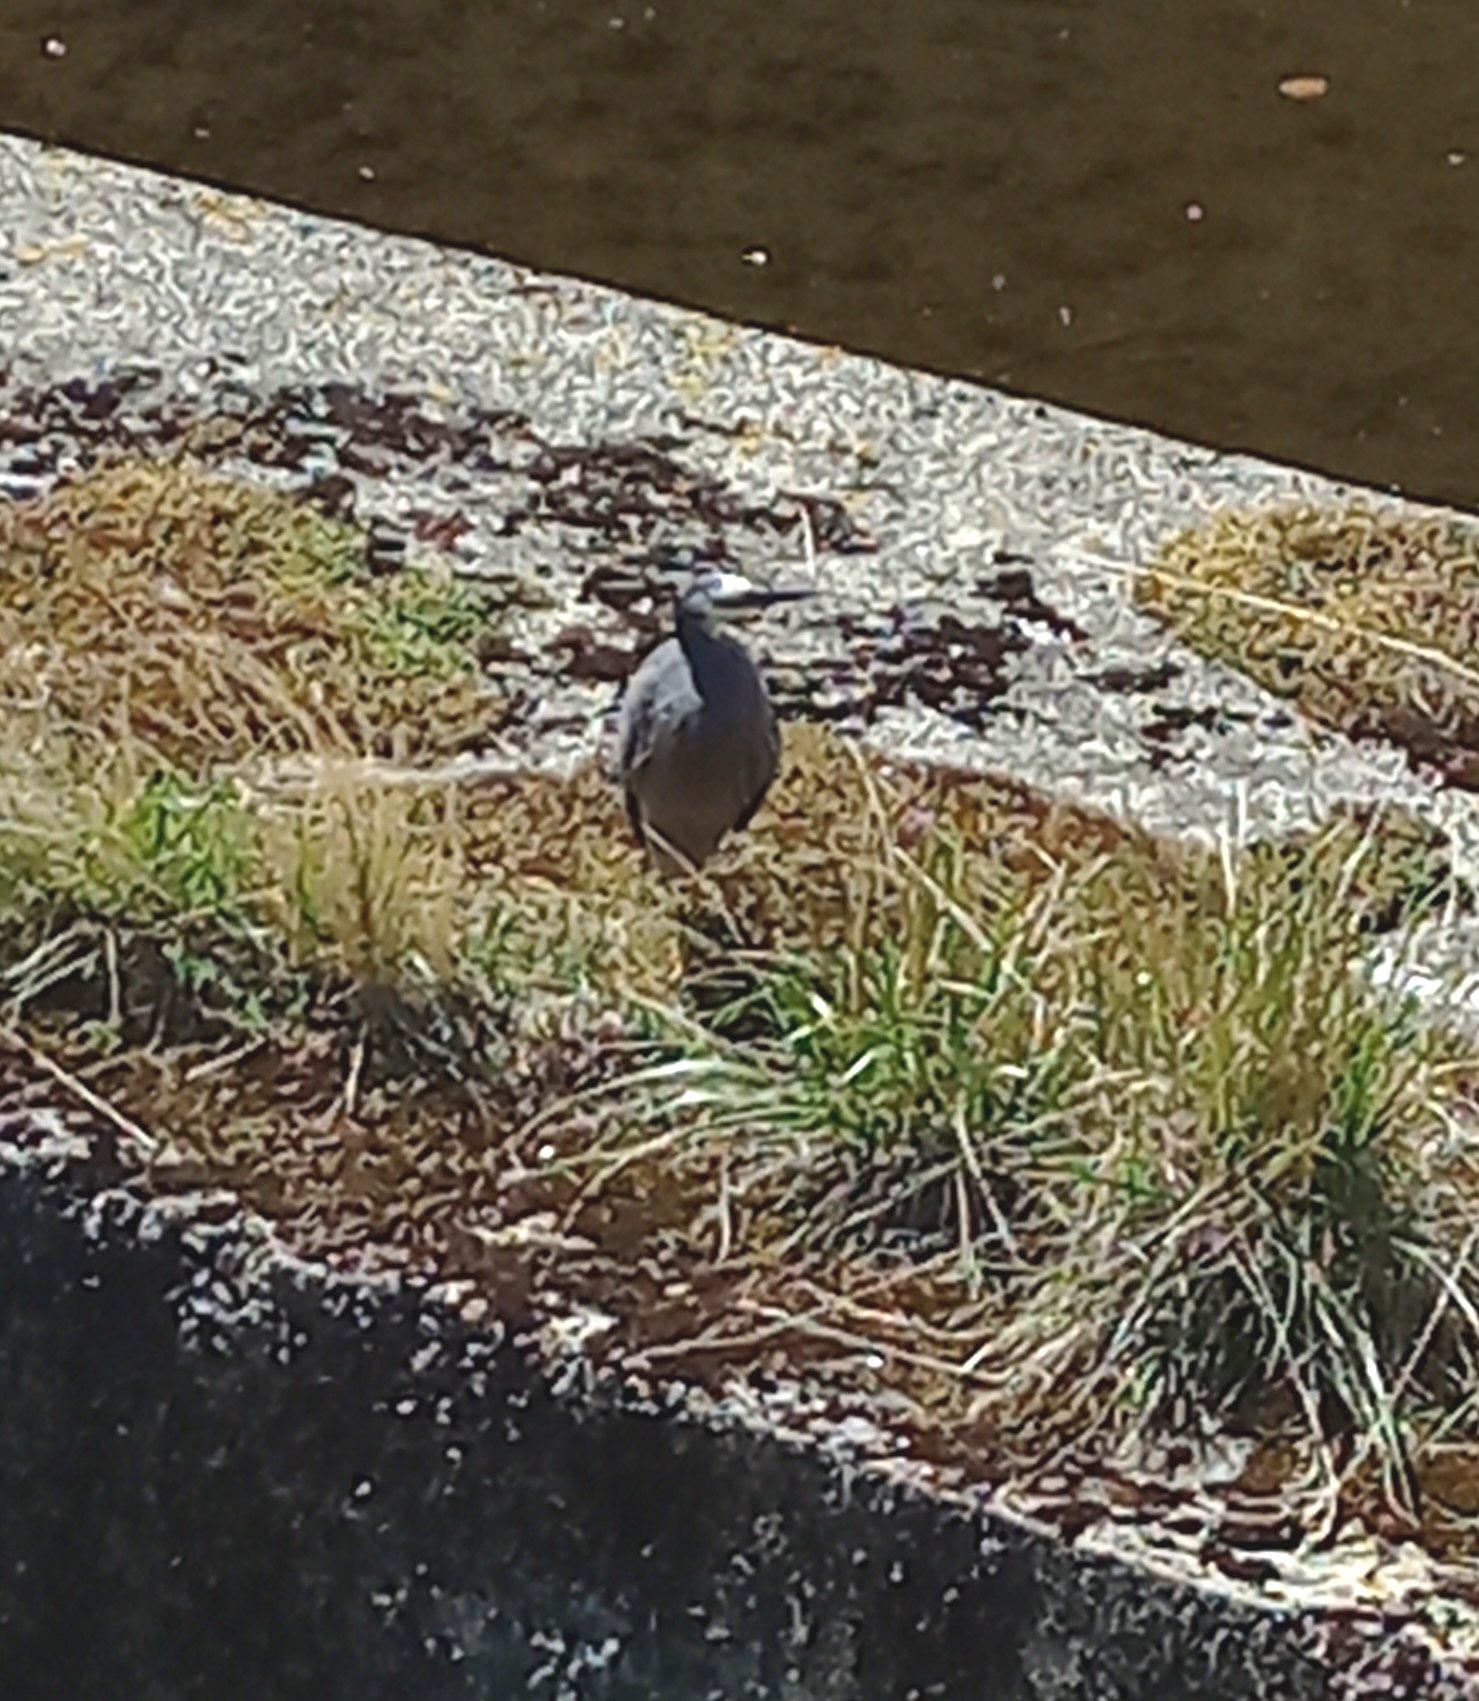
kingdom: Animalia
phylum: Chordata
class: Aves
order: Pelecaniformes
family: Ardeidae
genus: Egretta
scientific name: Egretta novaehollandiae
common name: White-faced heron
